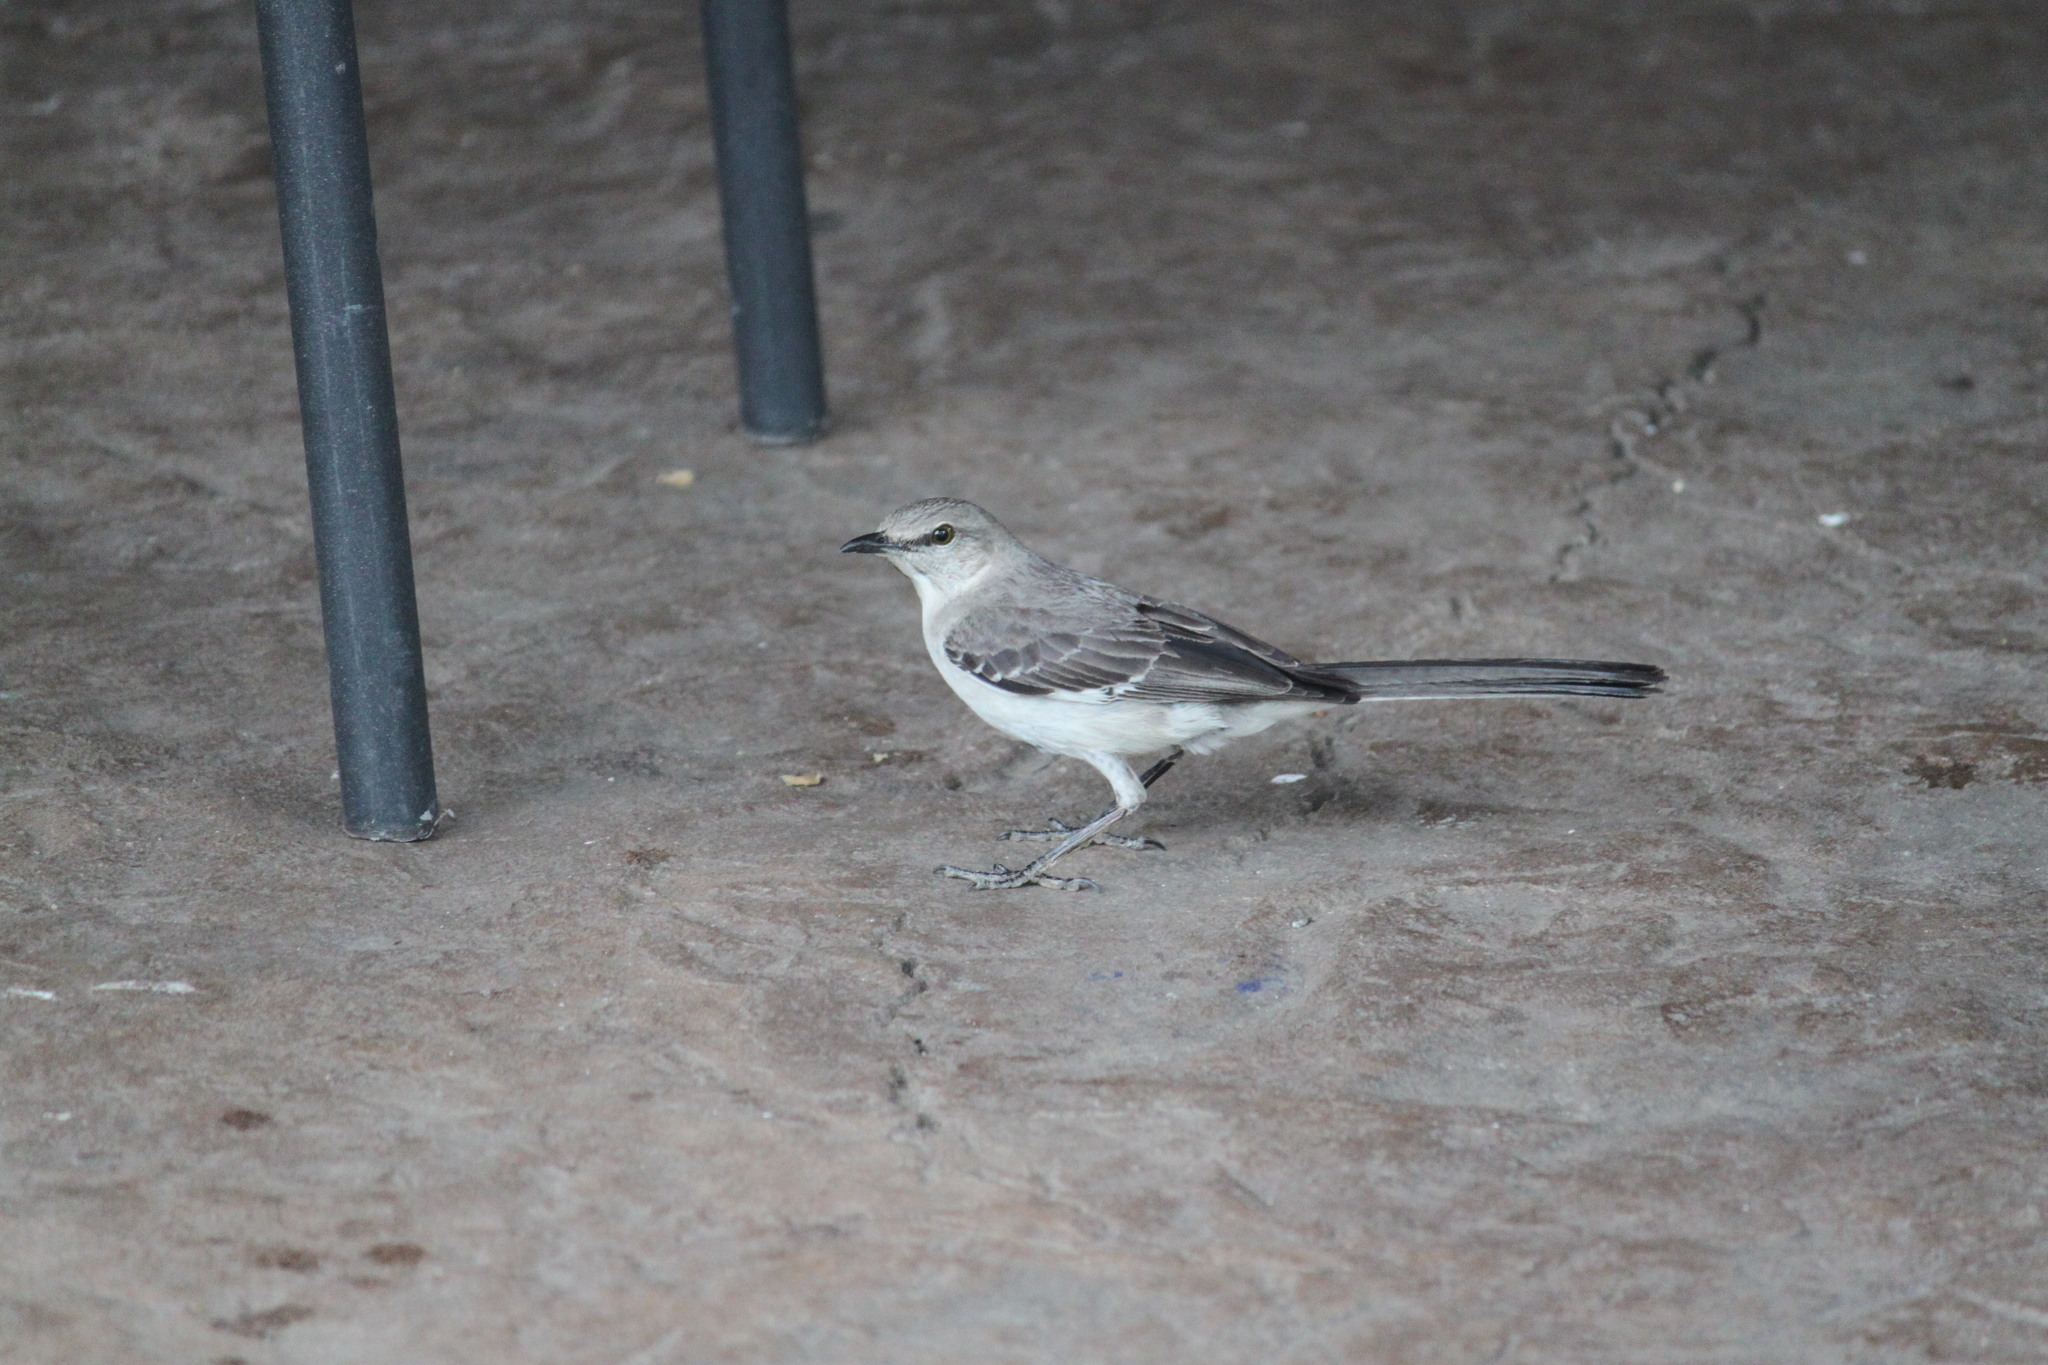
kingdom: Animalia
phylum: Chordata
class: Aves
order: Passeriformes
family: Mimidae
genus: Mimus
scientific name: Mimus polyglottos
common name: Northern mockingbird
